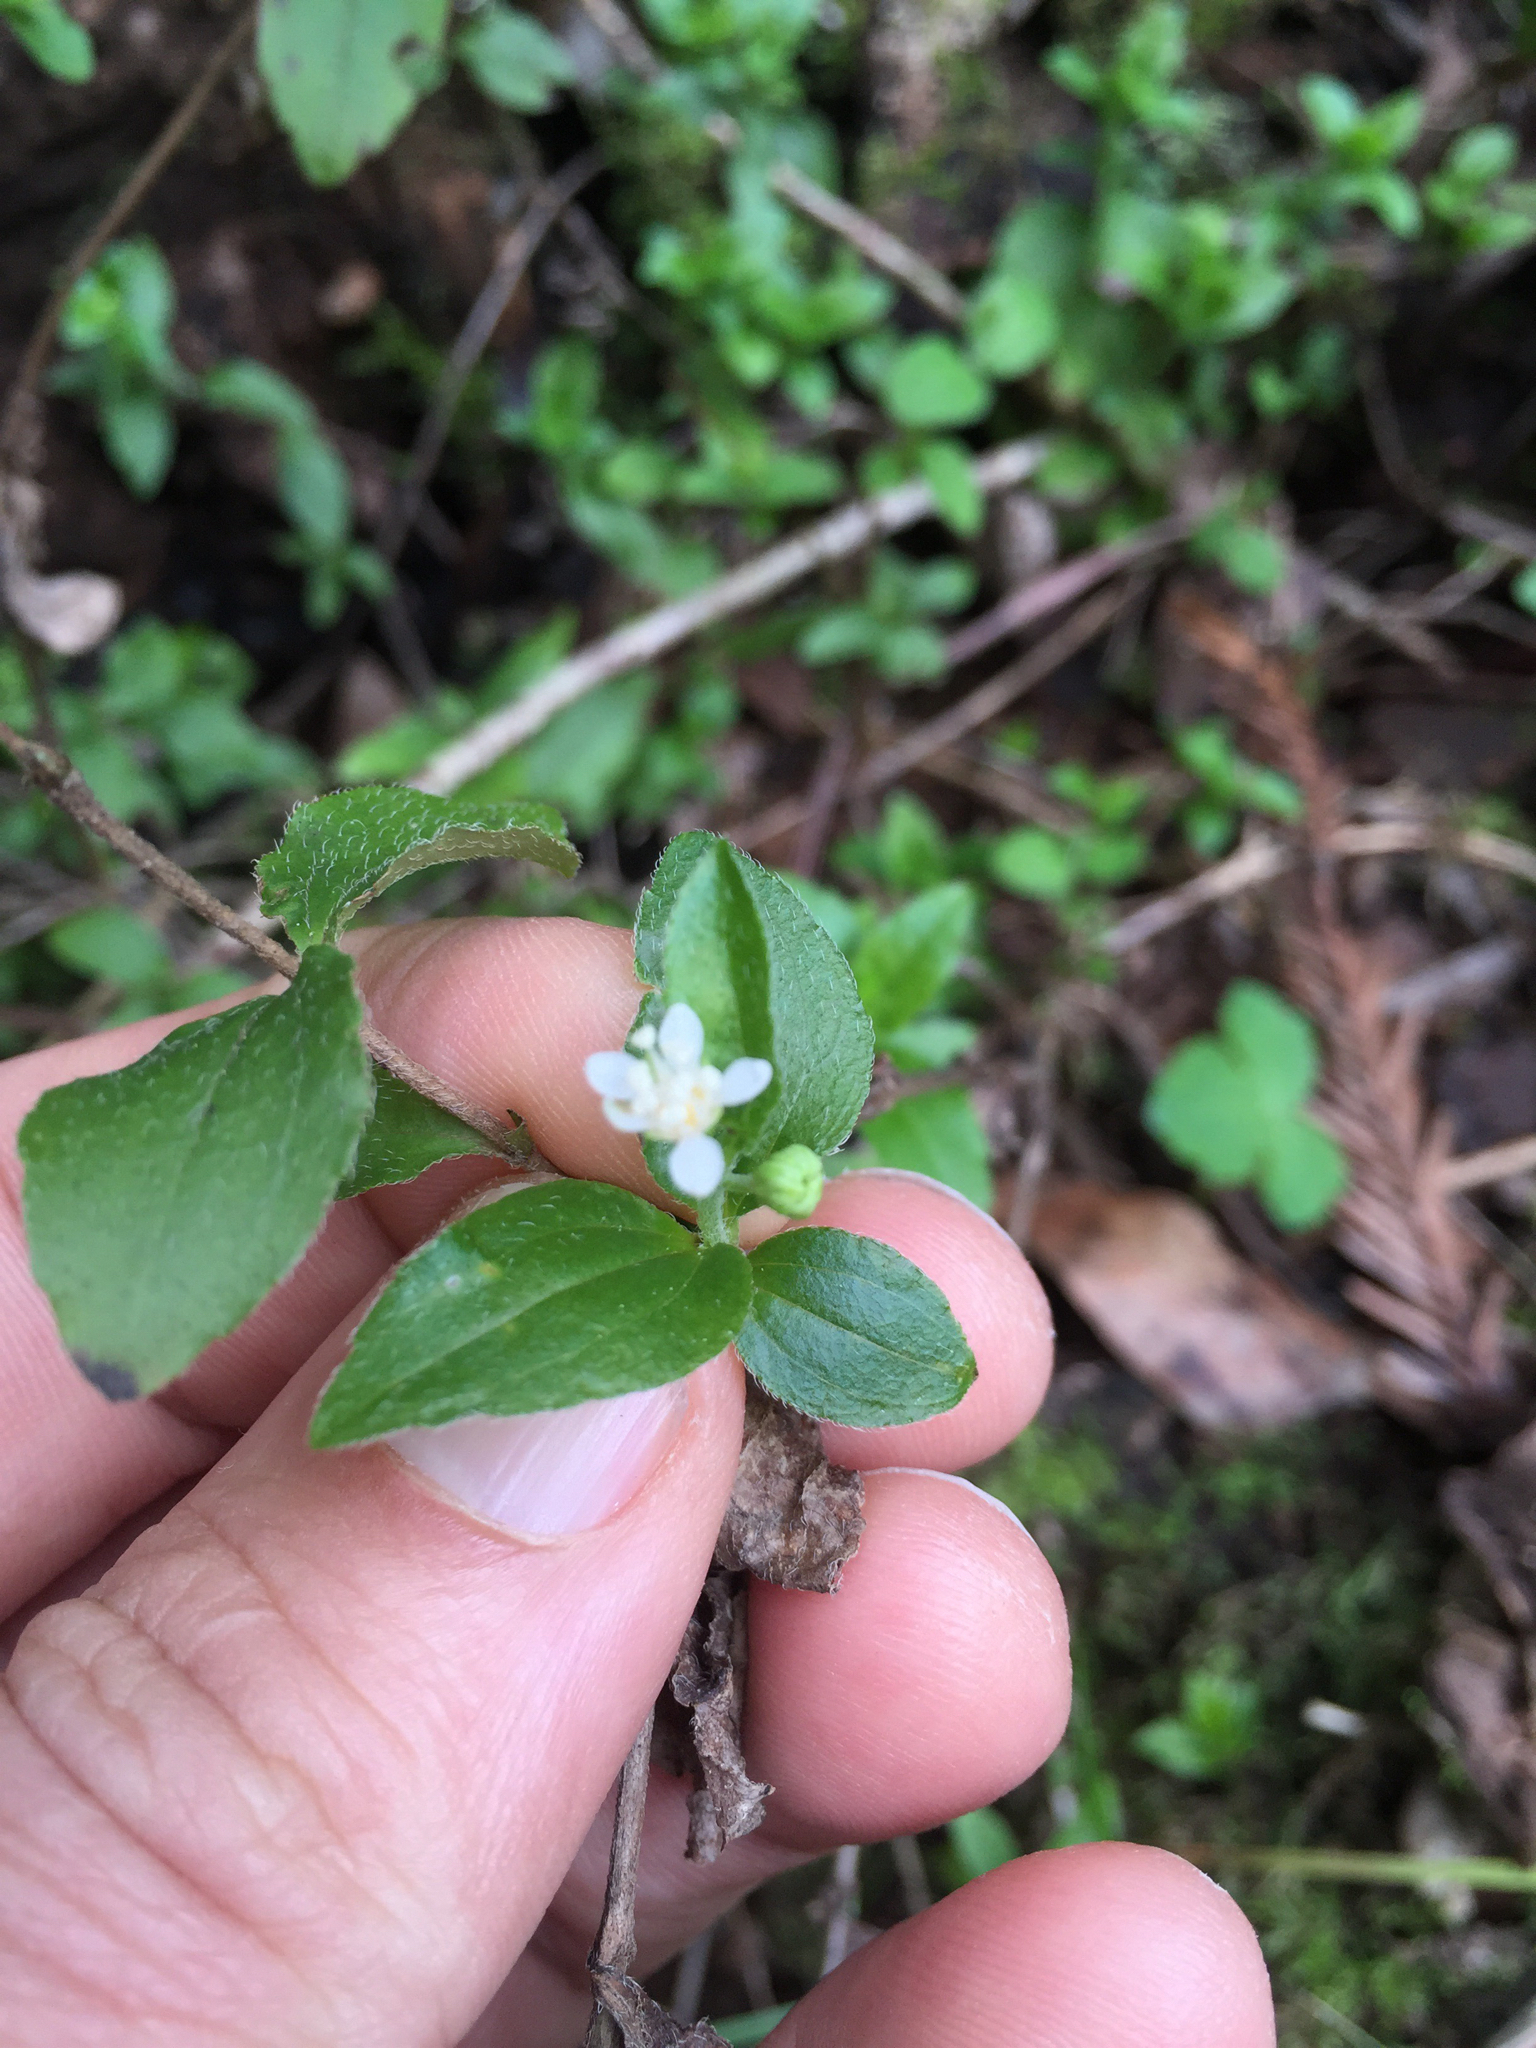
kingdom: Plantae
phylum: Tracheophyta
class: Magnoliopsida
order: Cornales
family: Hydrangeaceae
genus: Whipplea
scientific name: Whipplea modesta
